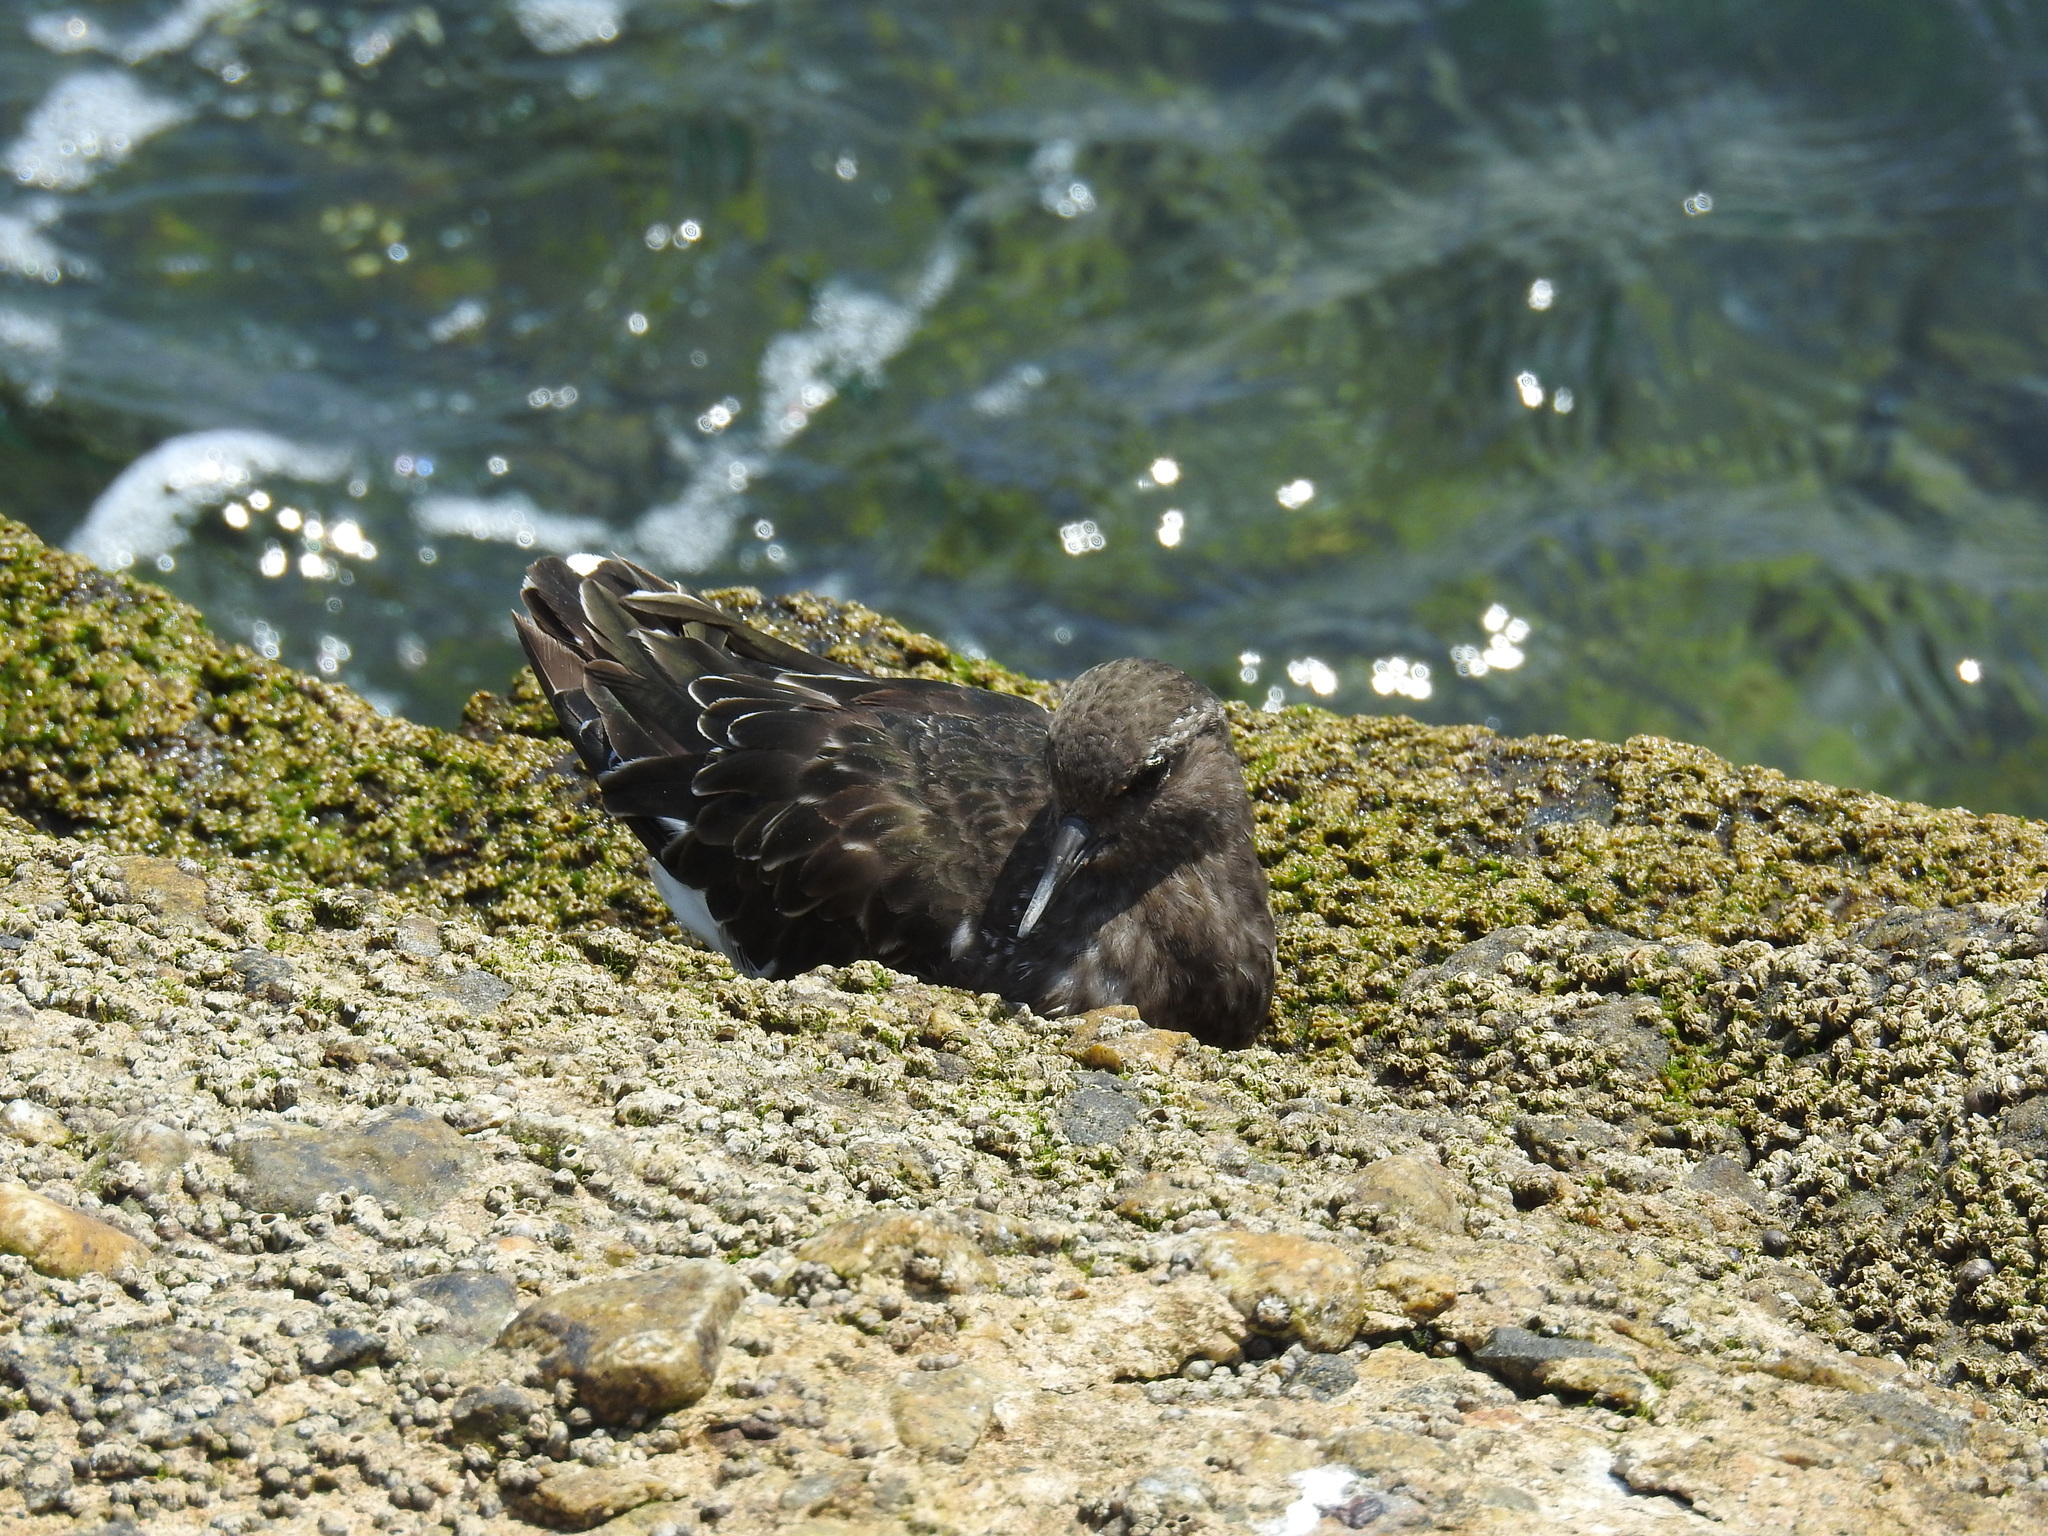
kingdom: Animalia
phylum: Chordata
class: Aves
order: Charadriiformes
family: Scolopacidae
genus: Arenaria
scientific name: Arenaria melanocephala
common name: Black turnstone
